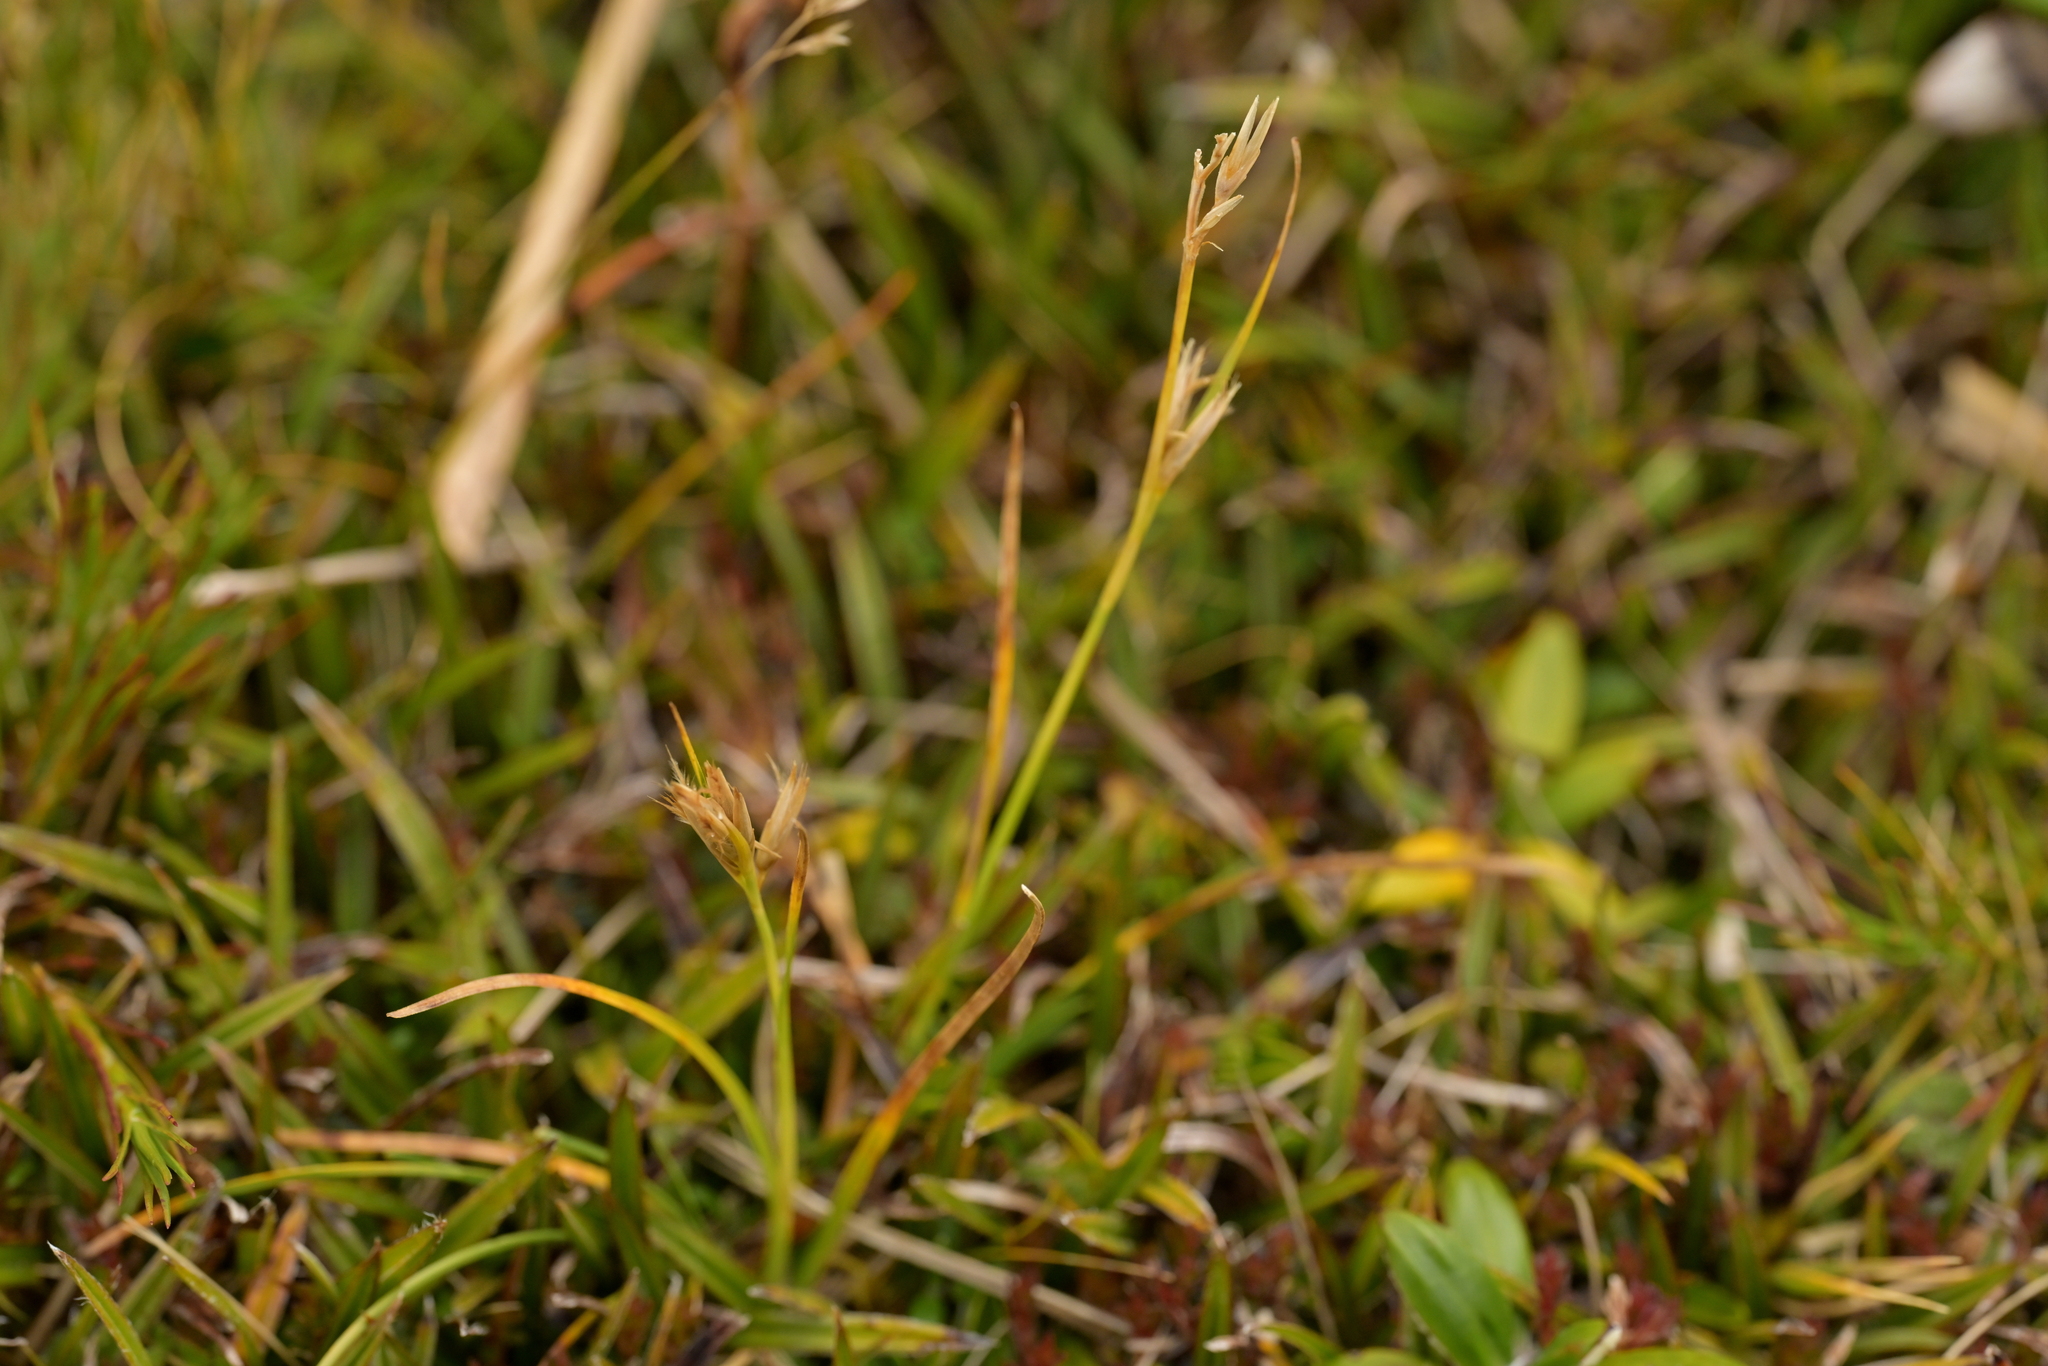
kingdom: Plantae
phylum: Tracheophyta
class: Liliopsida
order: Poales
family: Cyperaceae
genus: Carpha
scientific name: Carpha alpina
